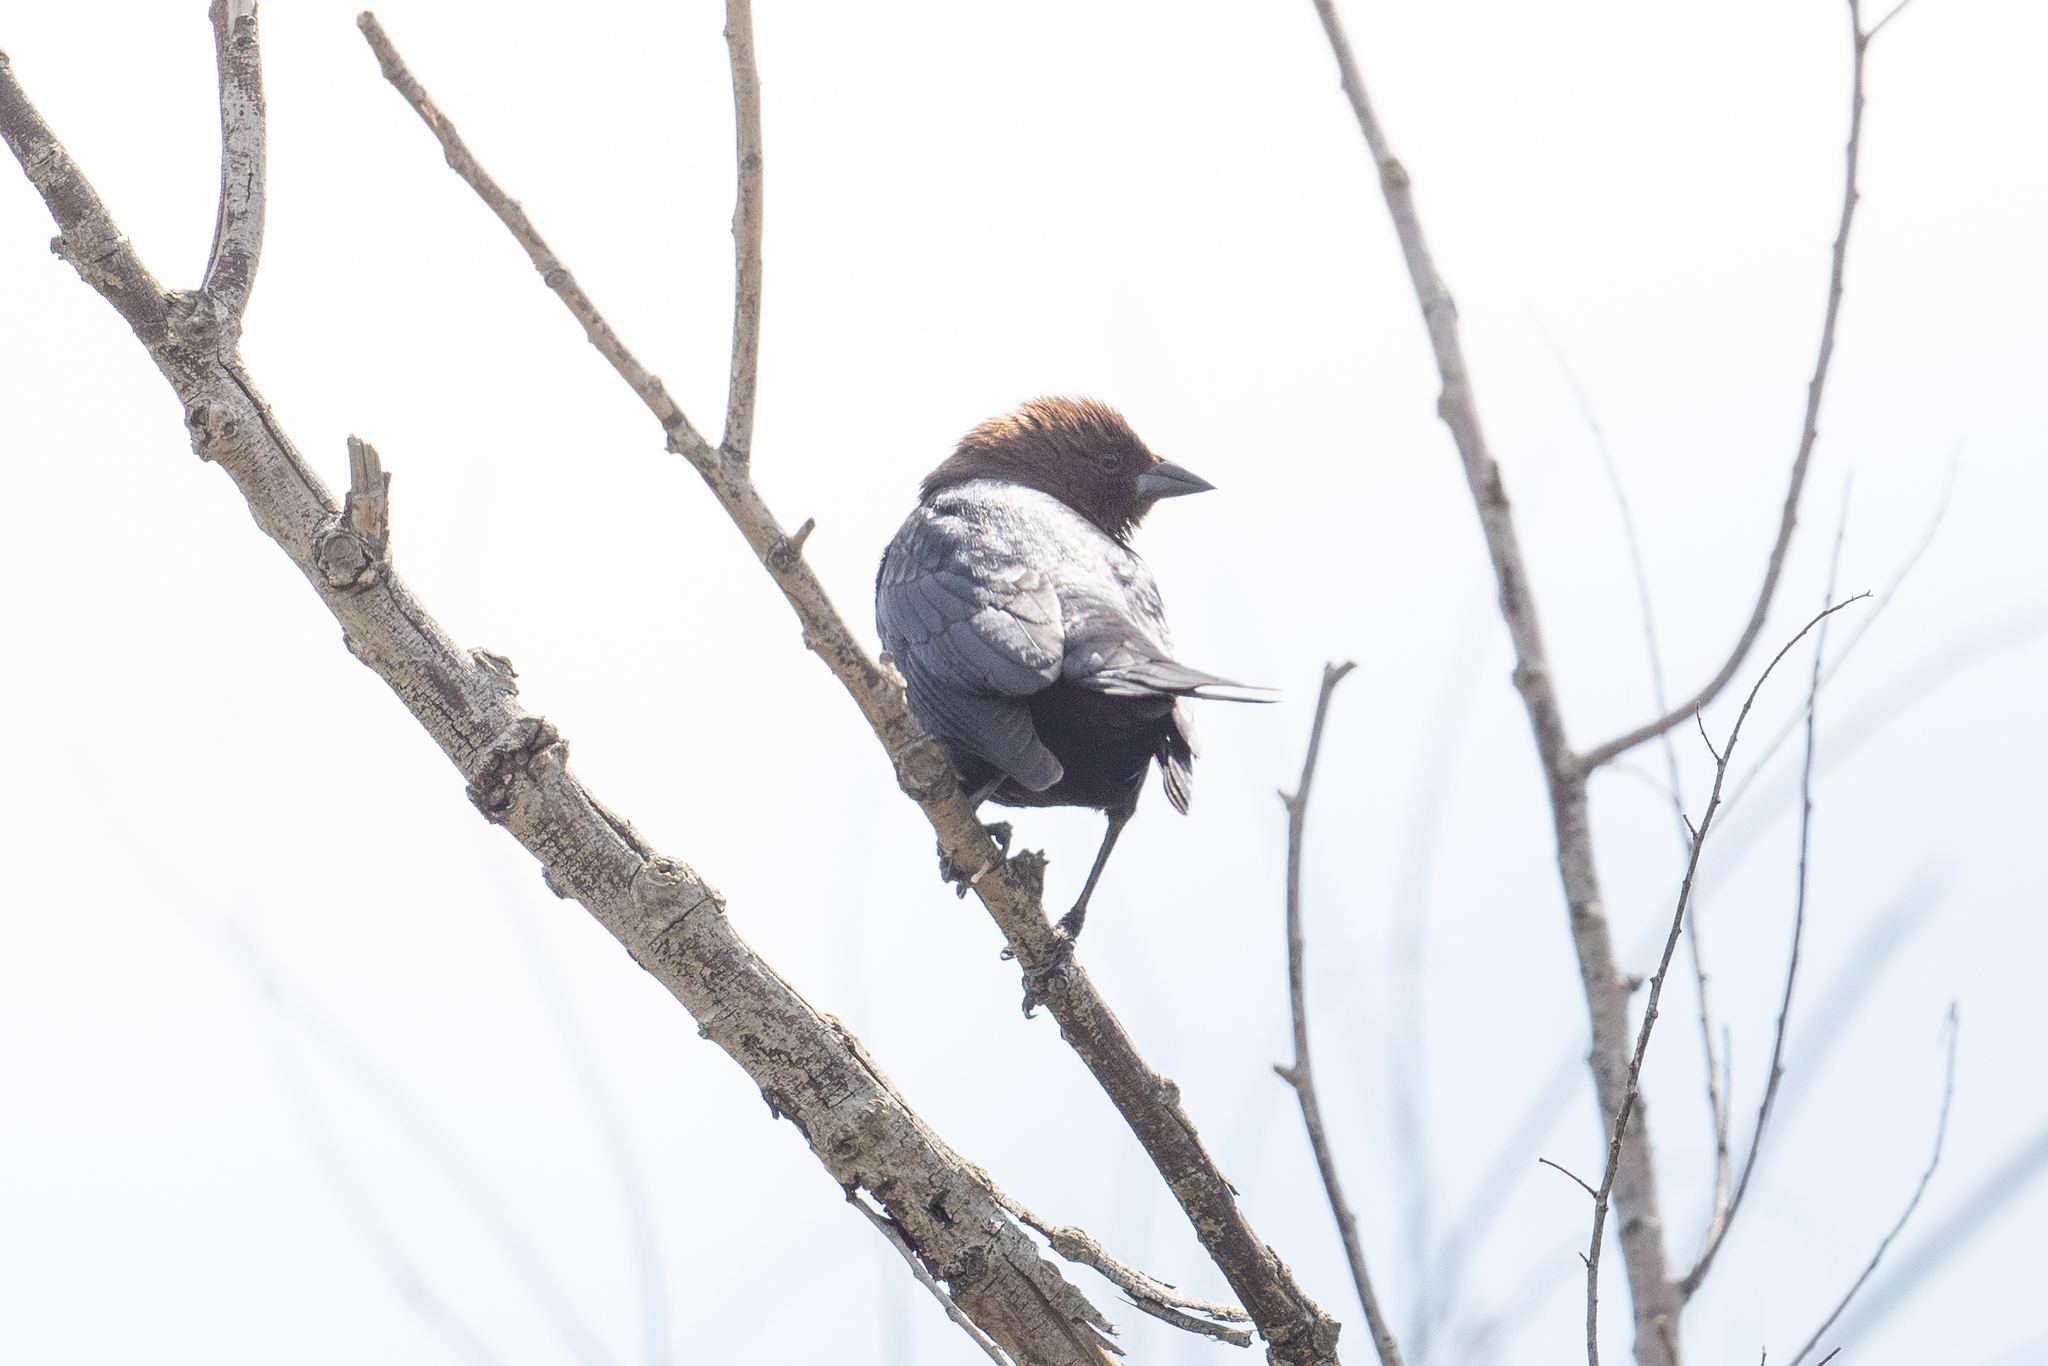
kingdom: Animalia
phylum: Chordata
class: Aves
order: Passeriformes
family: Icteridae
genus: Molothrus
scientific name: Molothrus ater
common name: Brown-headed cowbird
